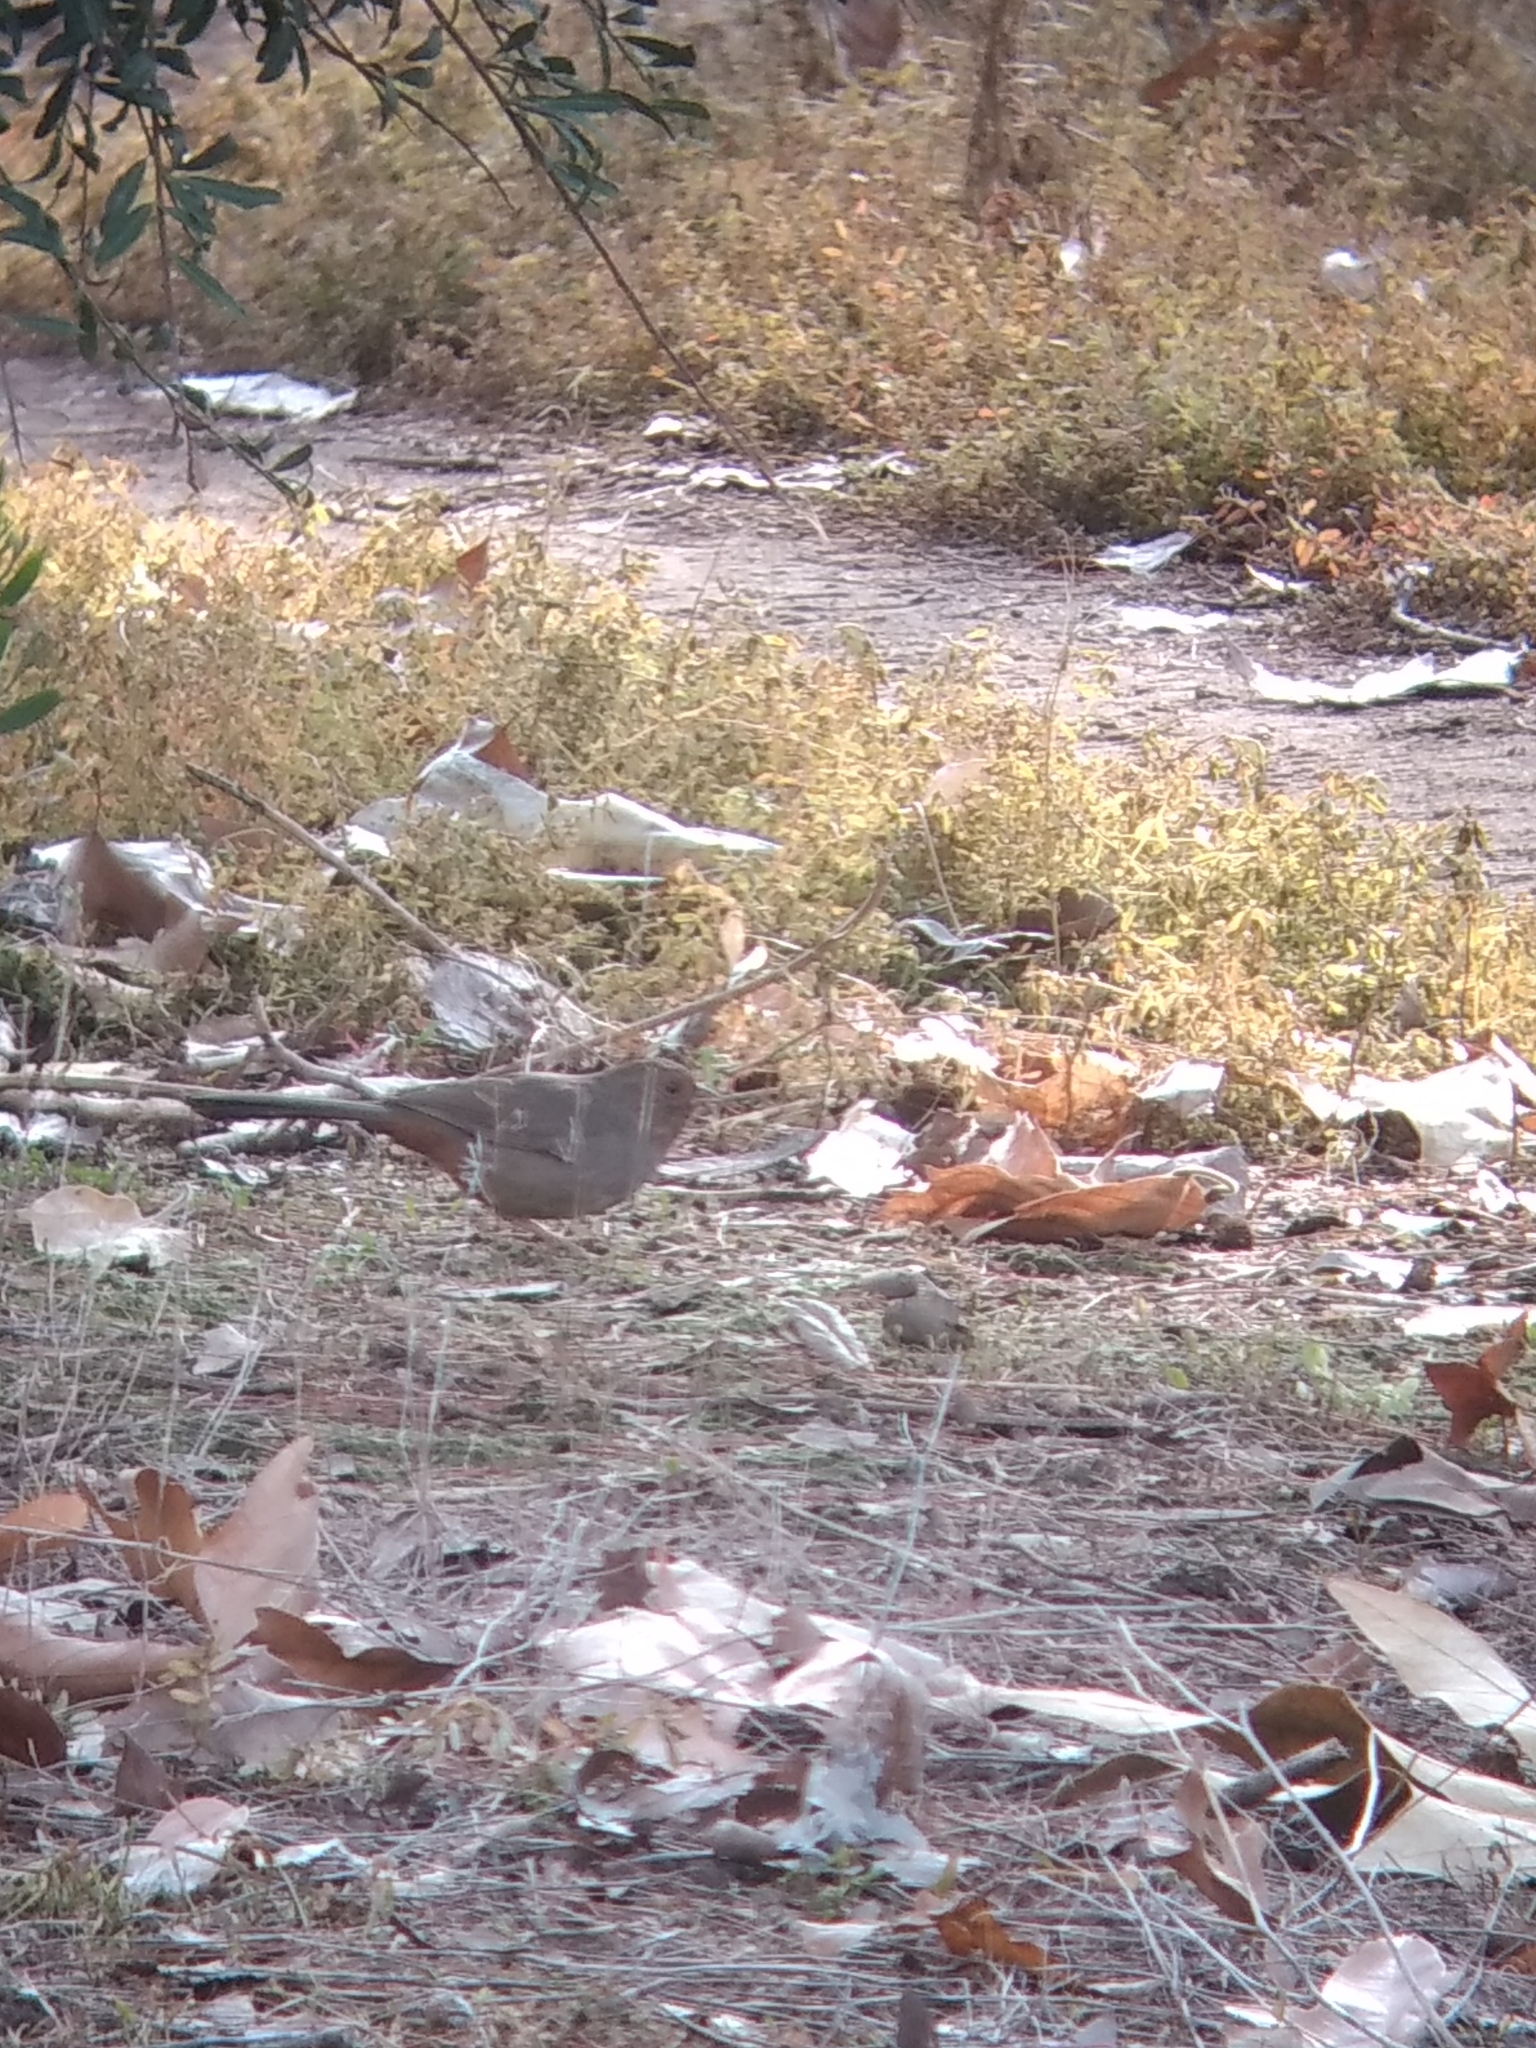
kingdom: Animalia
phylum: Chordata
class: Aves
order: Passeriformes
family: Passerellidae
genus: Melozone
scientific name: Melozone crissalis
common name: California towhee
